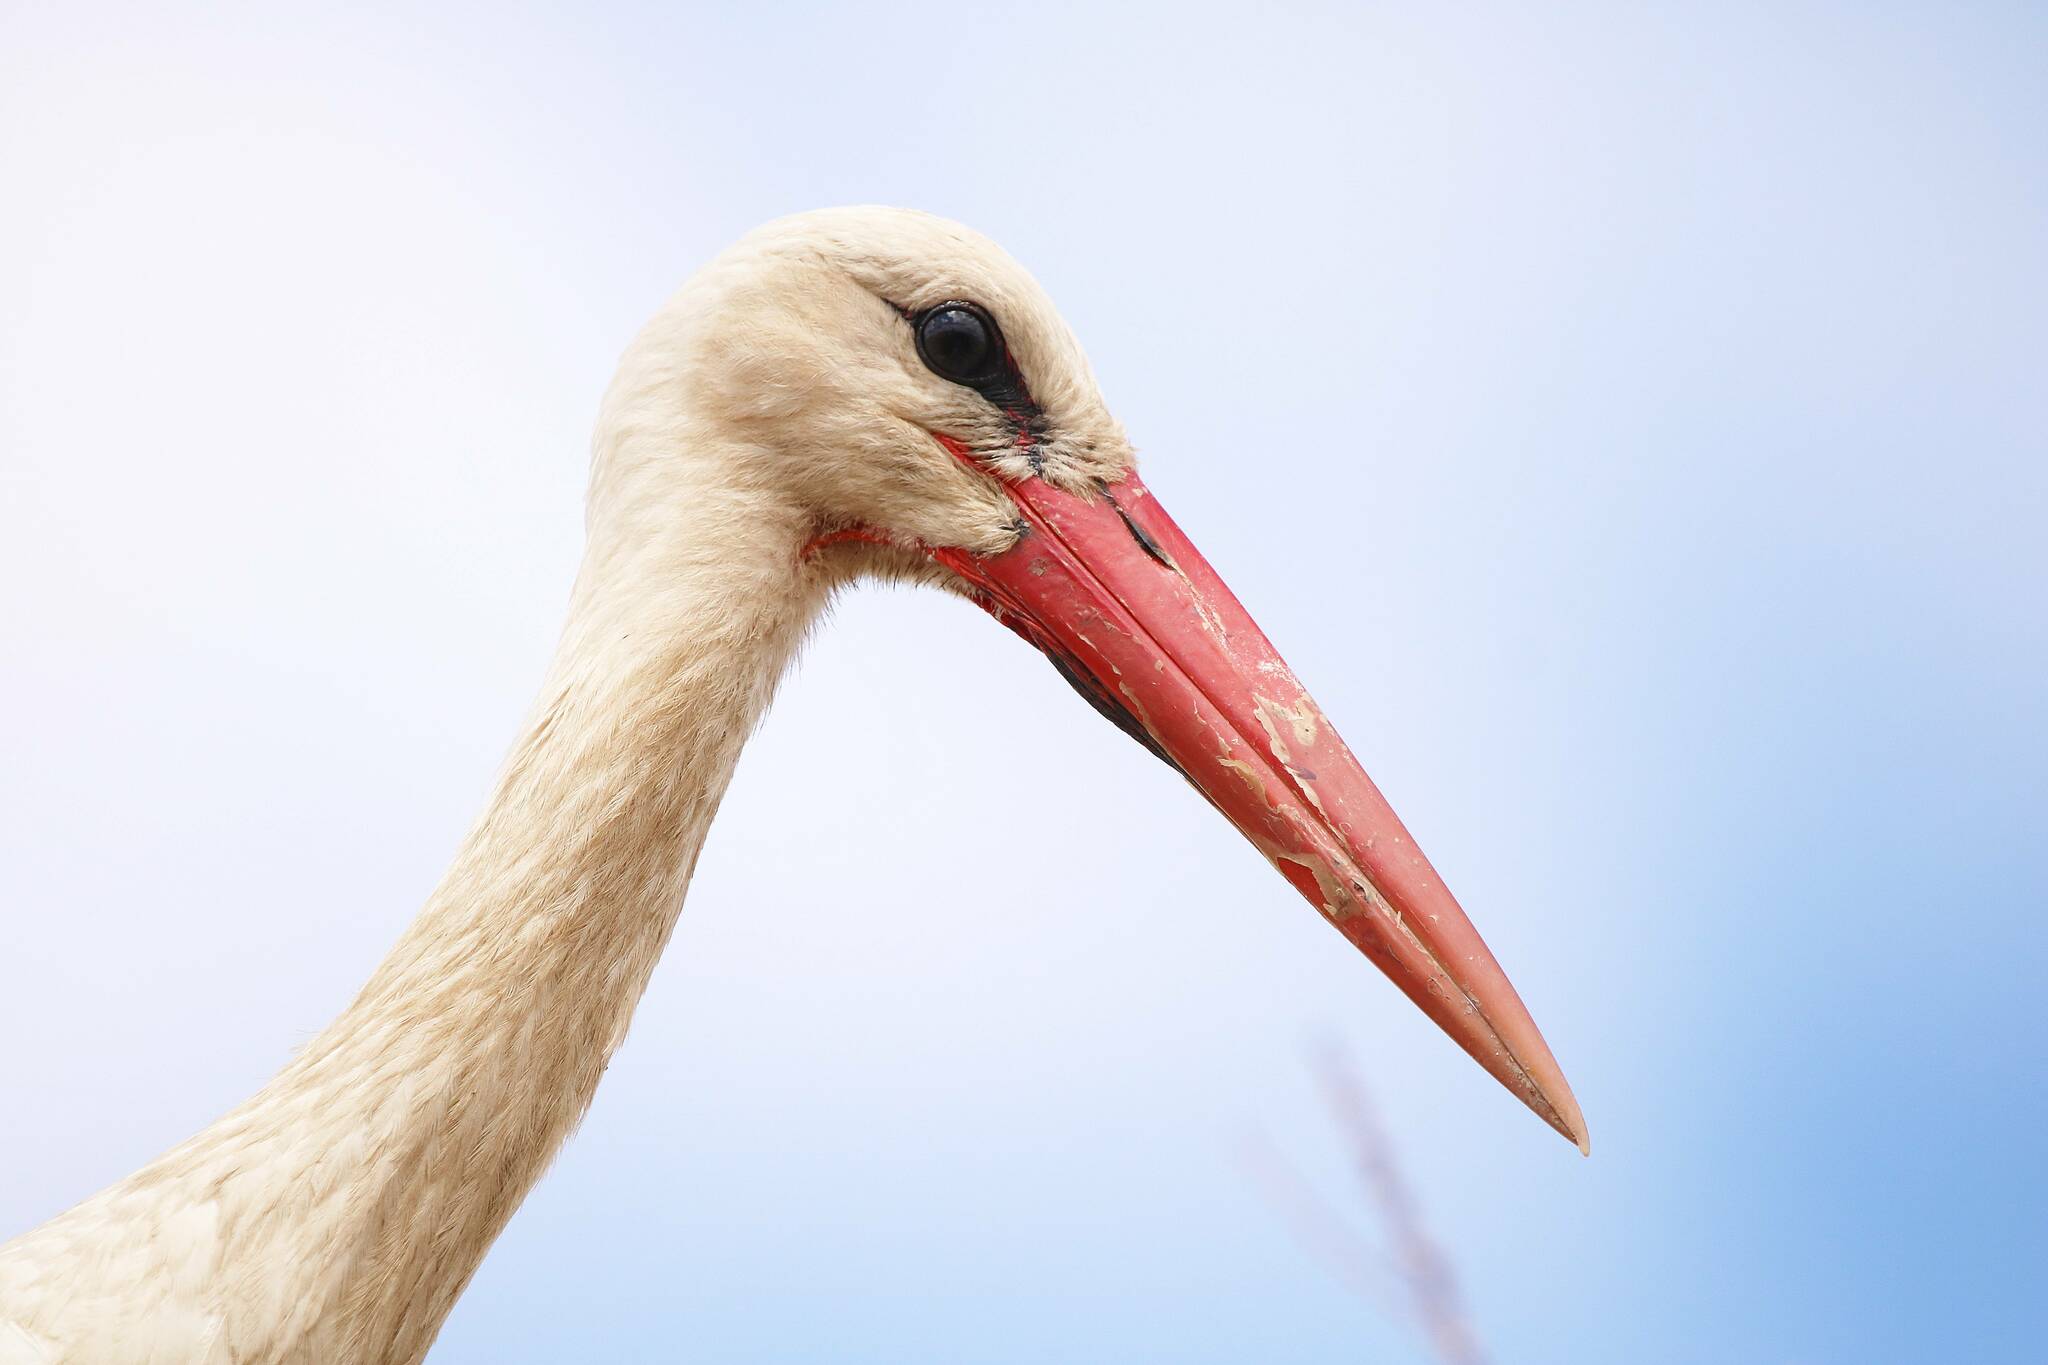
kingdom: Animalia
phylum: Chordata
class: Aves
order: Ciconiiformes
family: Ciconiidae
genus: Ciconia
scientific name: Ciconia ciconia
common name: White stork
